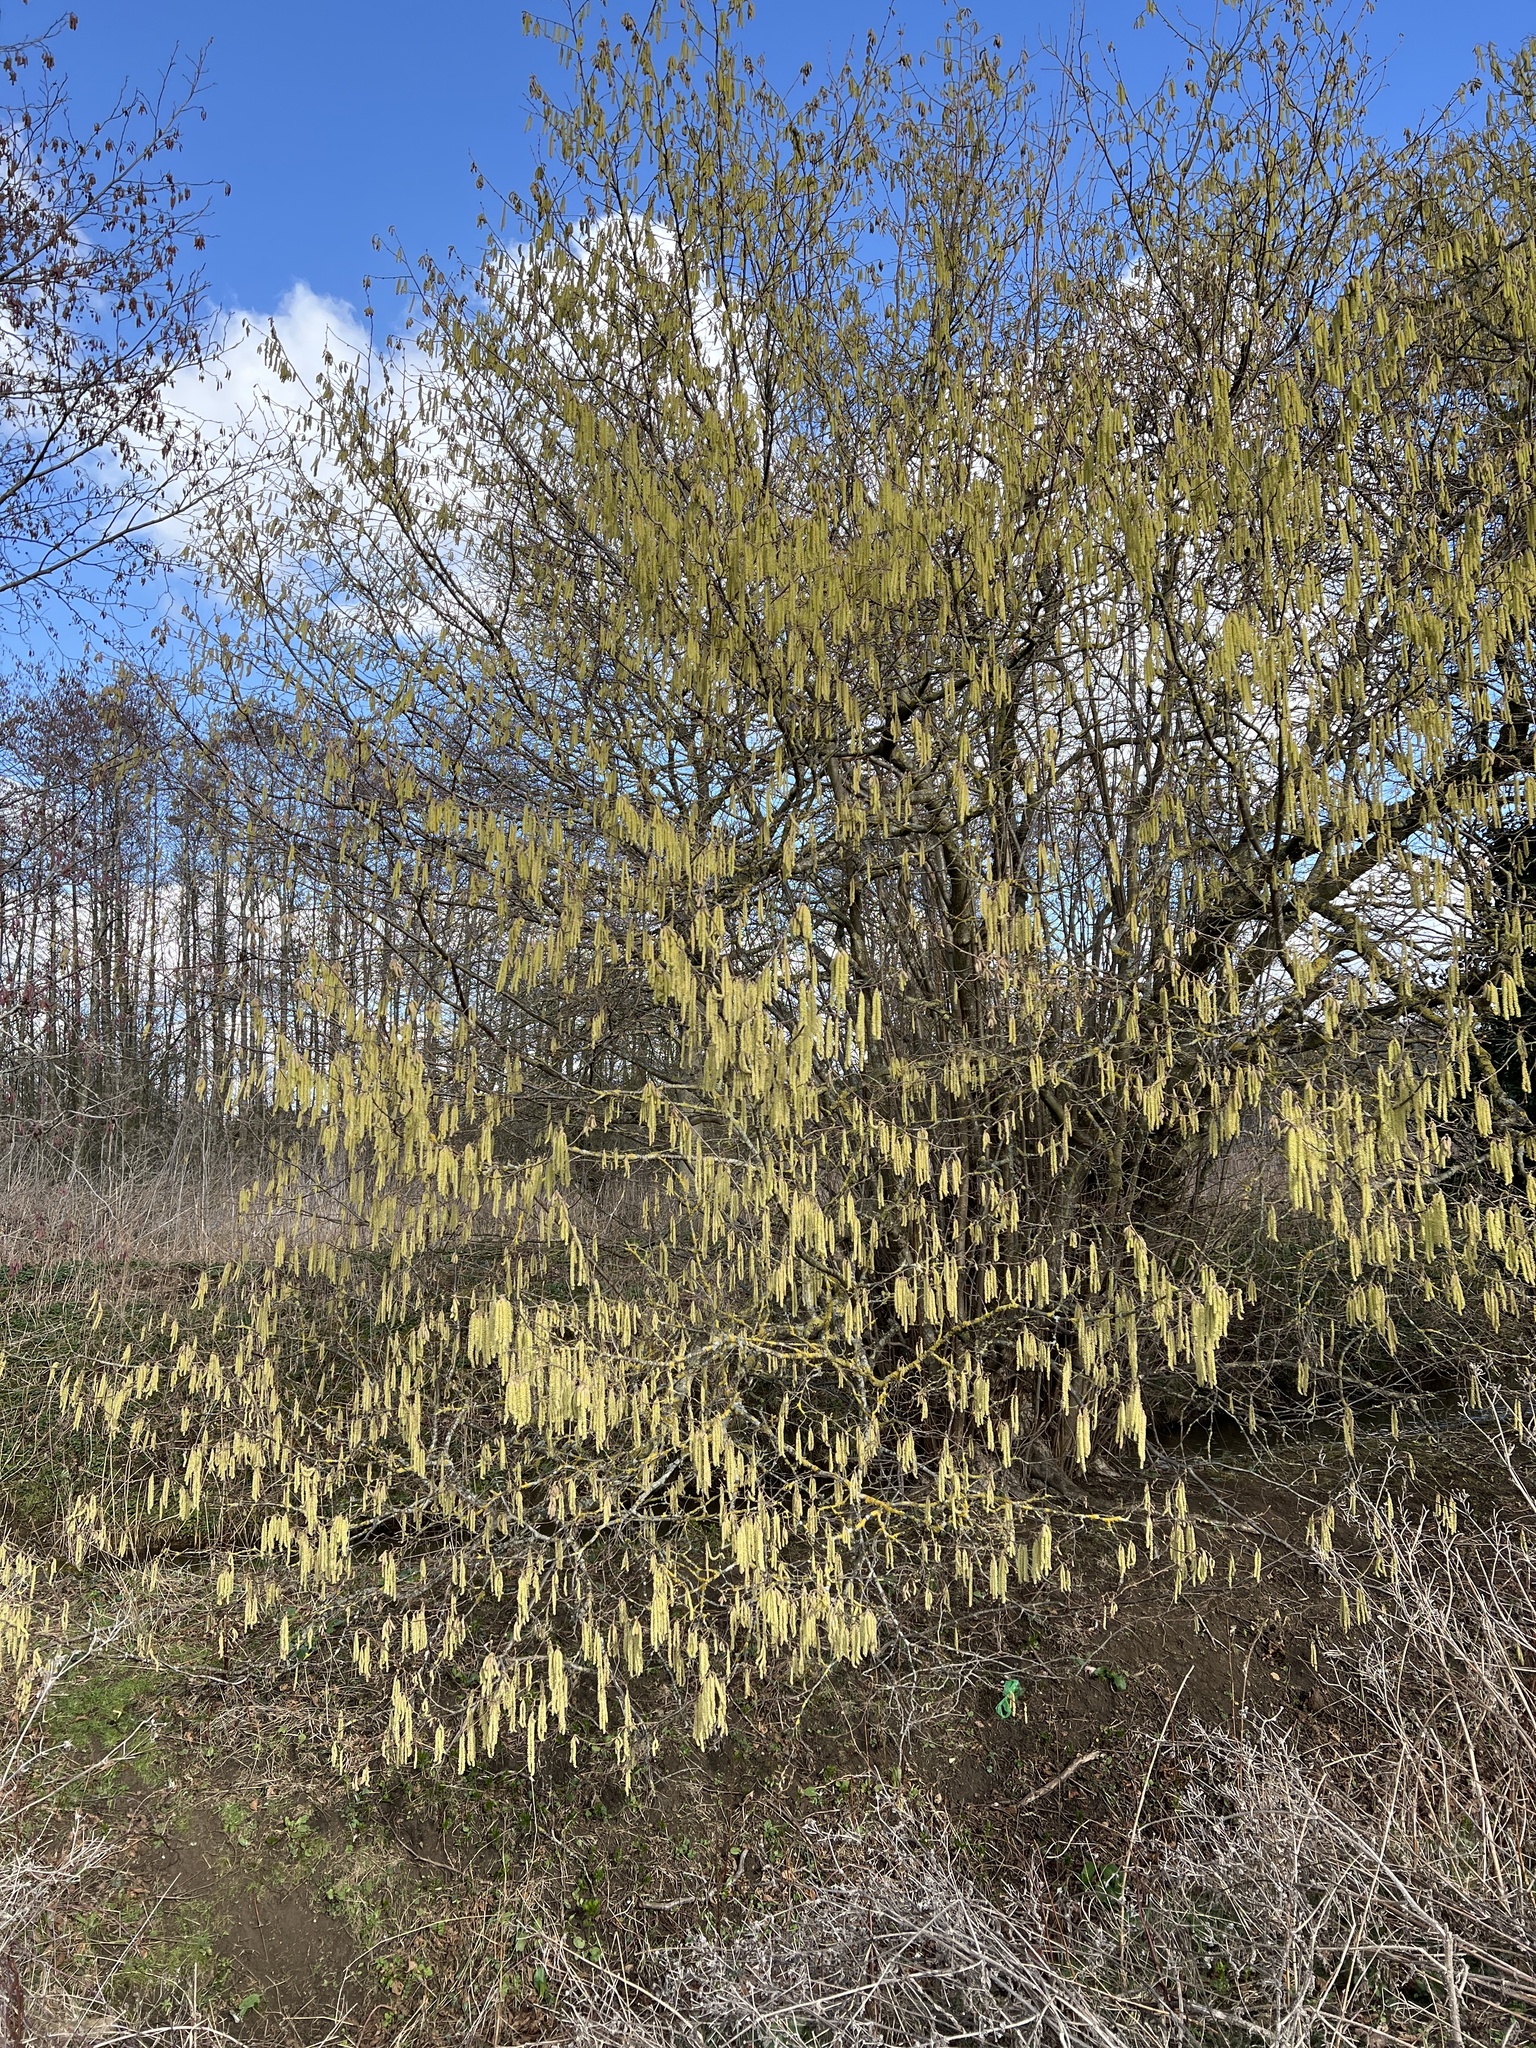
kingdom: Plantae
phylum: Tracheophyta
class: Magnoliopsida
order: Fagales
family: Betulaceae
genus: Corylus
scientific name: Corylus avellana
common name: European hazel
